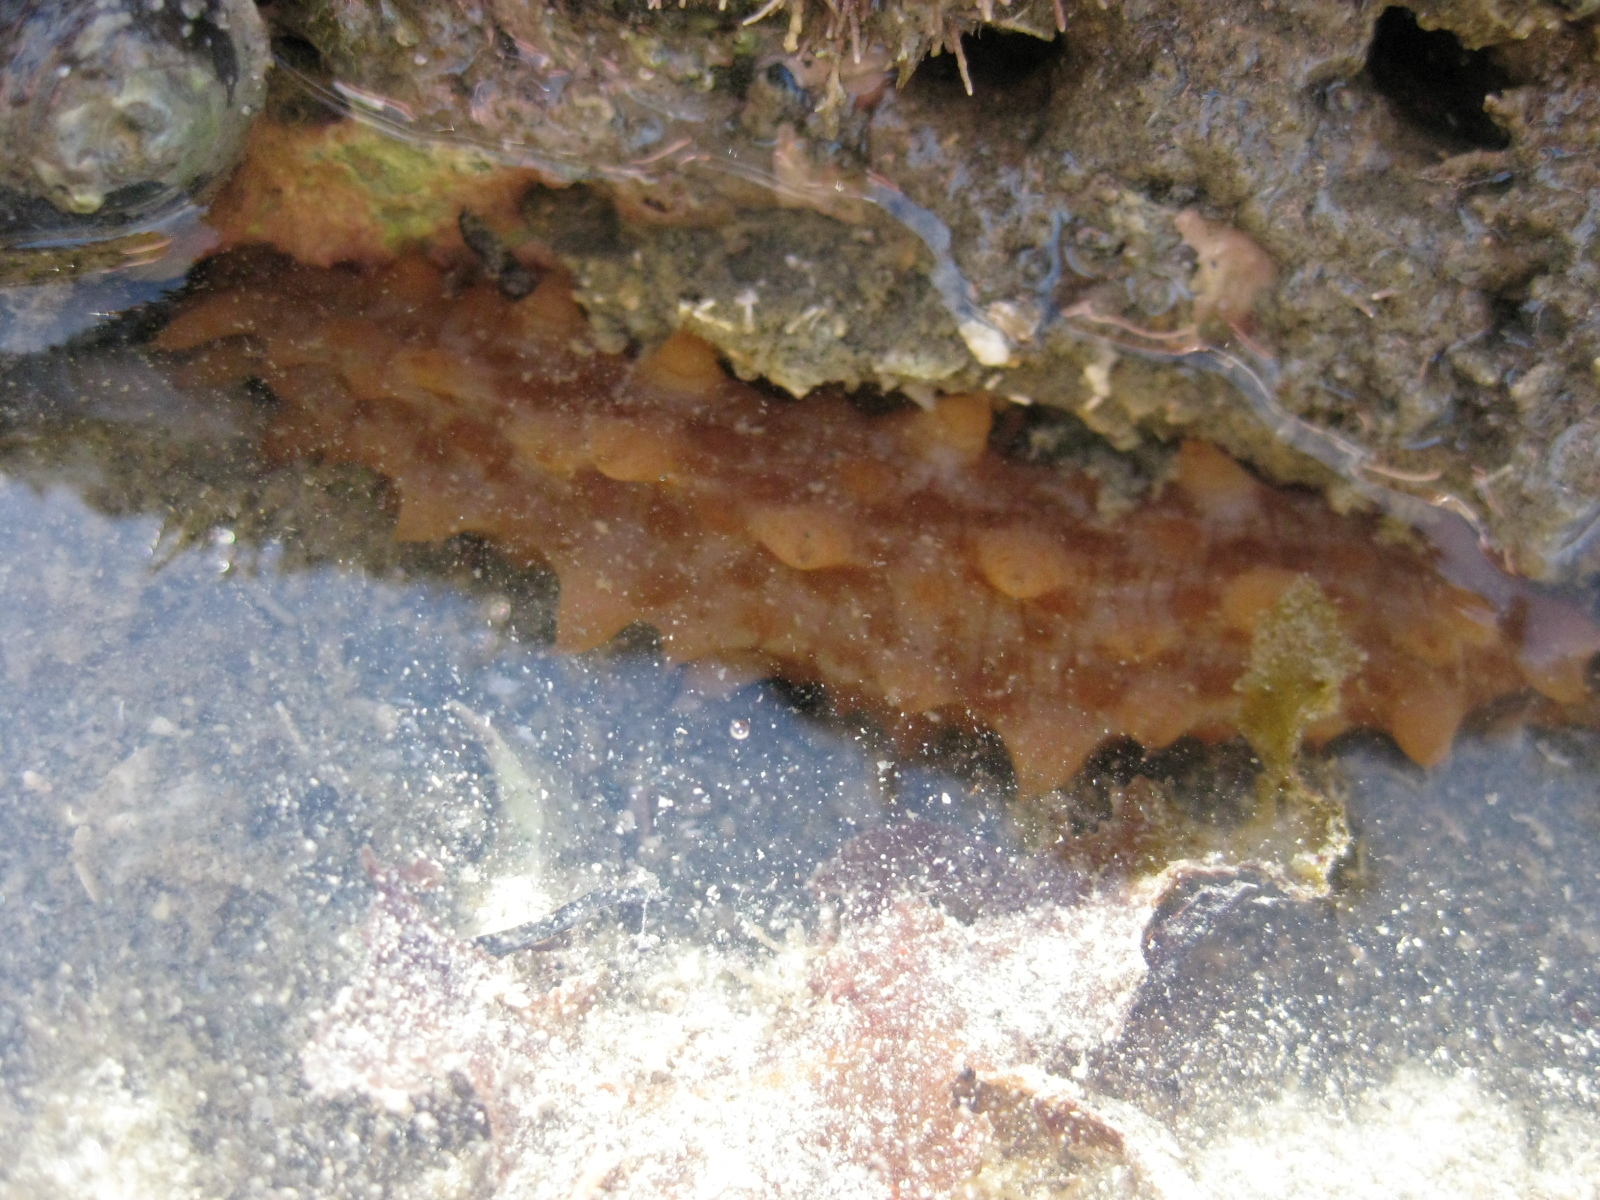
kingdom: Animalia
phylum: Echinodermata
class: Holothuroidea
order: Synallactida
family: Stichopodidae
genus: Australostichopus
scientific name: Australostichopus mollis
